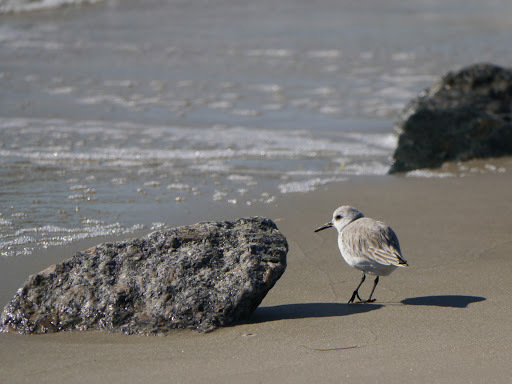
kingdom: Animalia
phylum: Chordata
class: Aves
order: Charadriiformes
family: Scolopacidae
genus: Calidris
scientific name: Calidris alba
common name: Sanderling
